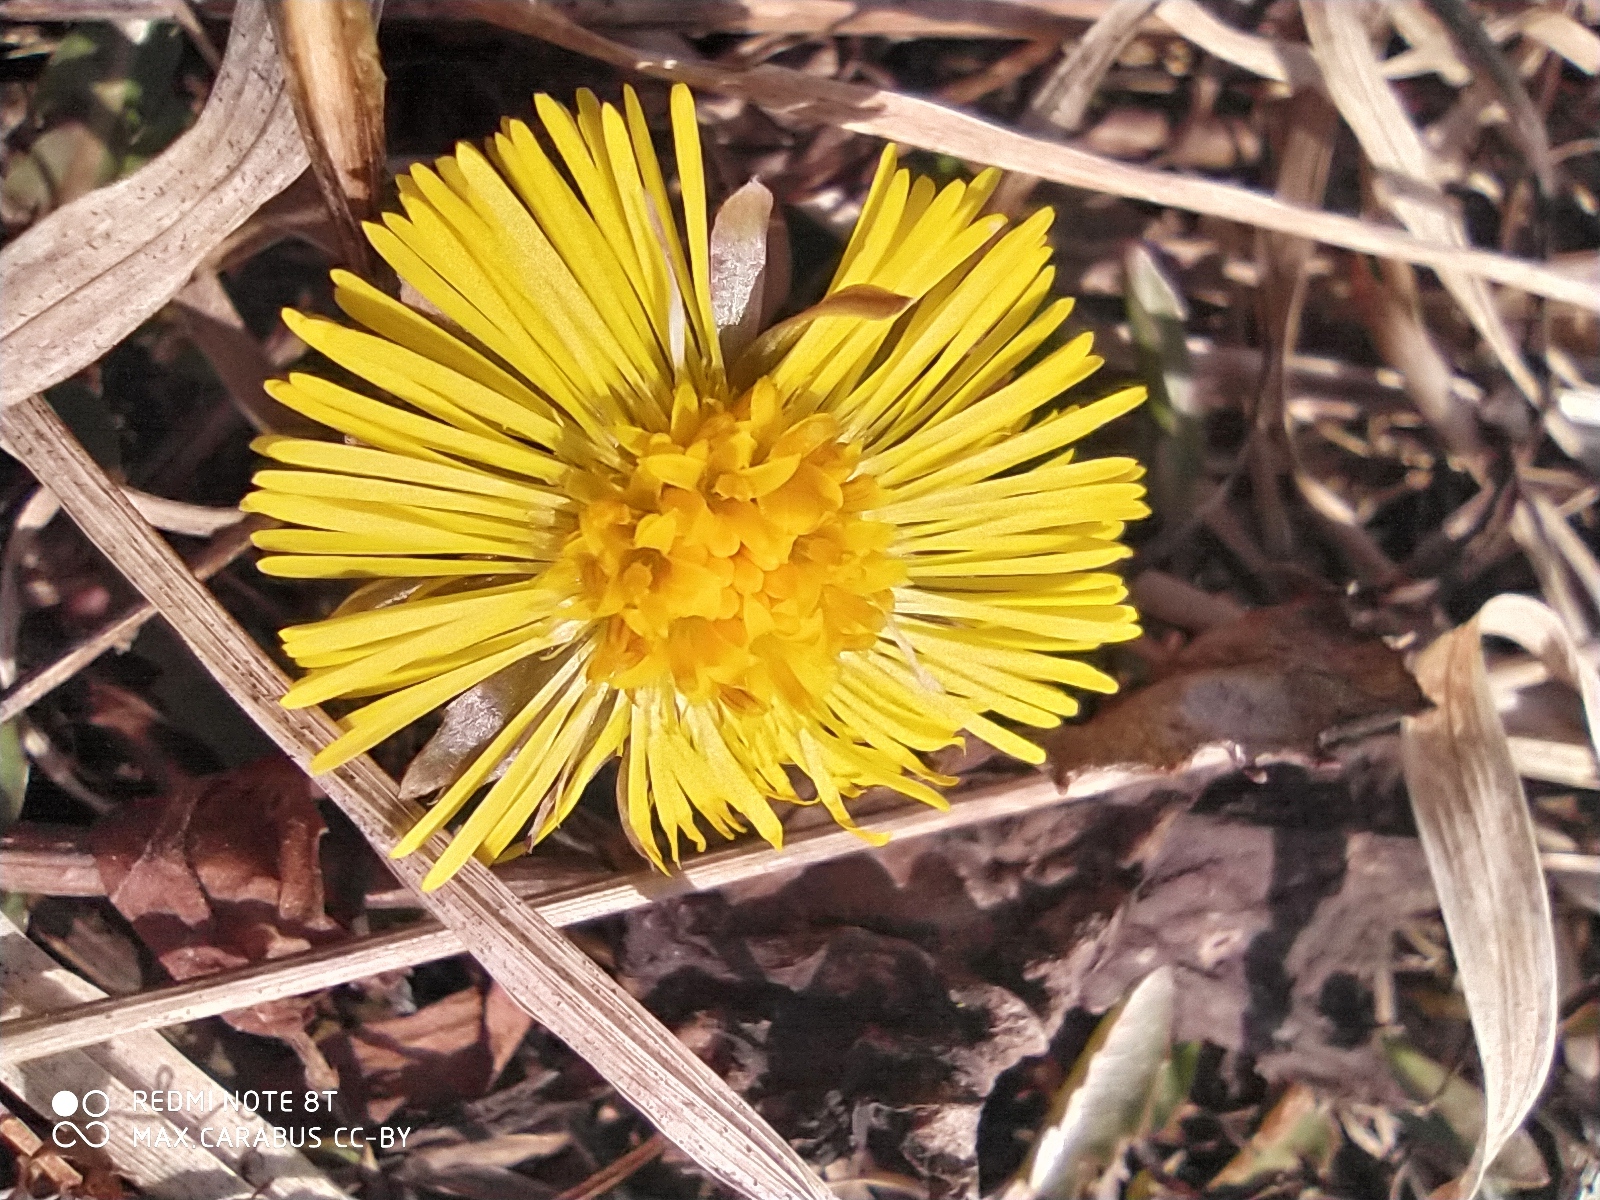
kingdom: Plantae
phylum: Tracheophyta
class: Magnoliopsida
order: Asterales
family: Asteraceae
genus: Tussilago
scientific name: Tussilago farfara
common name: Coltsfoot
